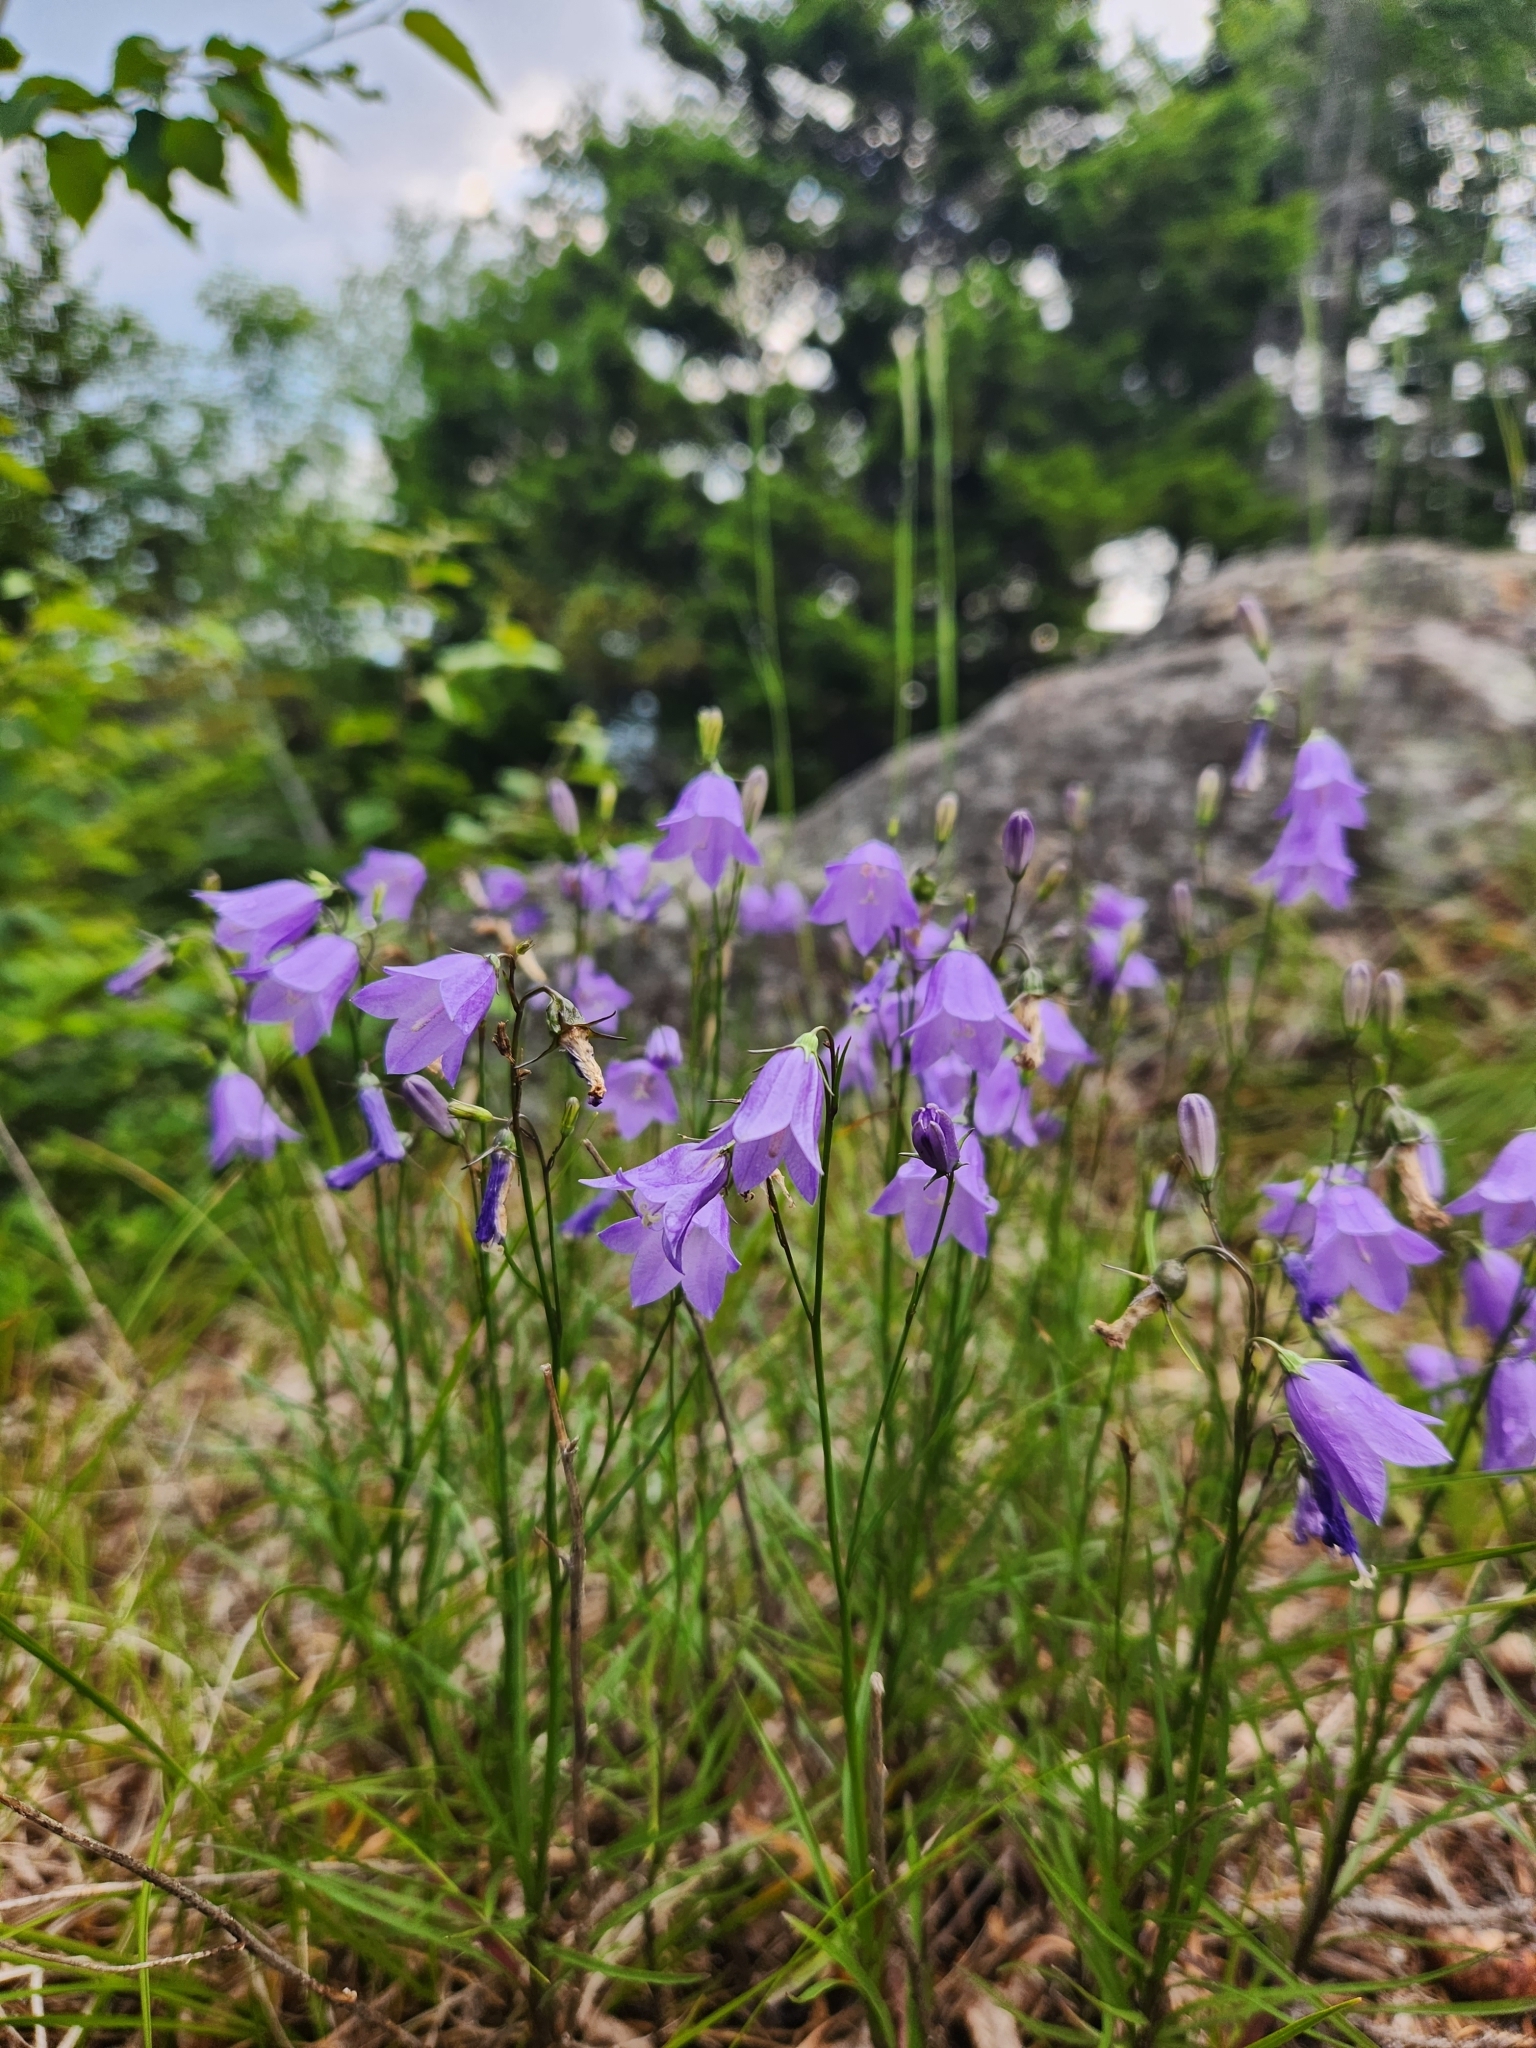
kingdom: Plantae
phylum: Tracheophyta
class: Magnoliopsida
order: Asterales
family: Campanulaceae
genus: Campanula
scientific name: Campanula intercedens
